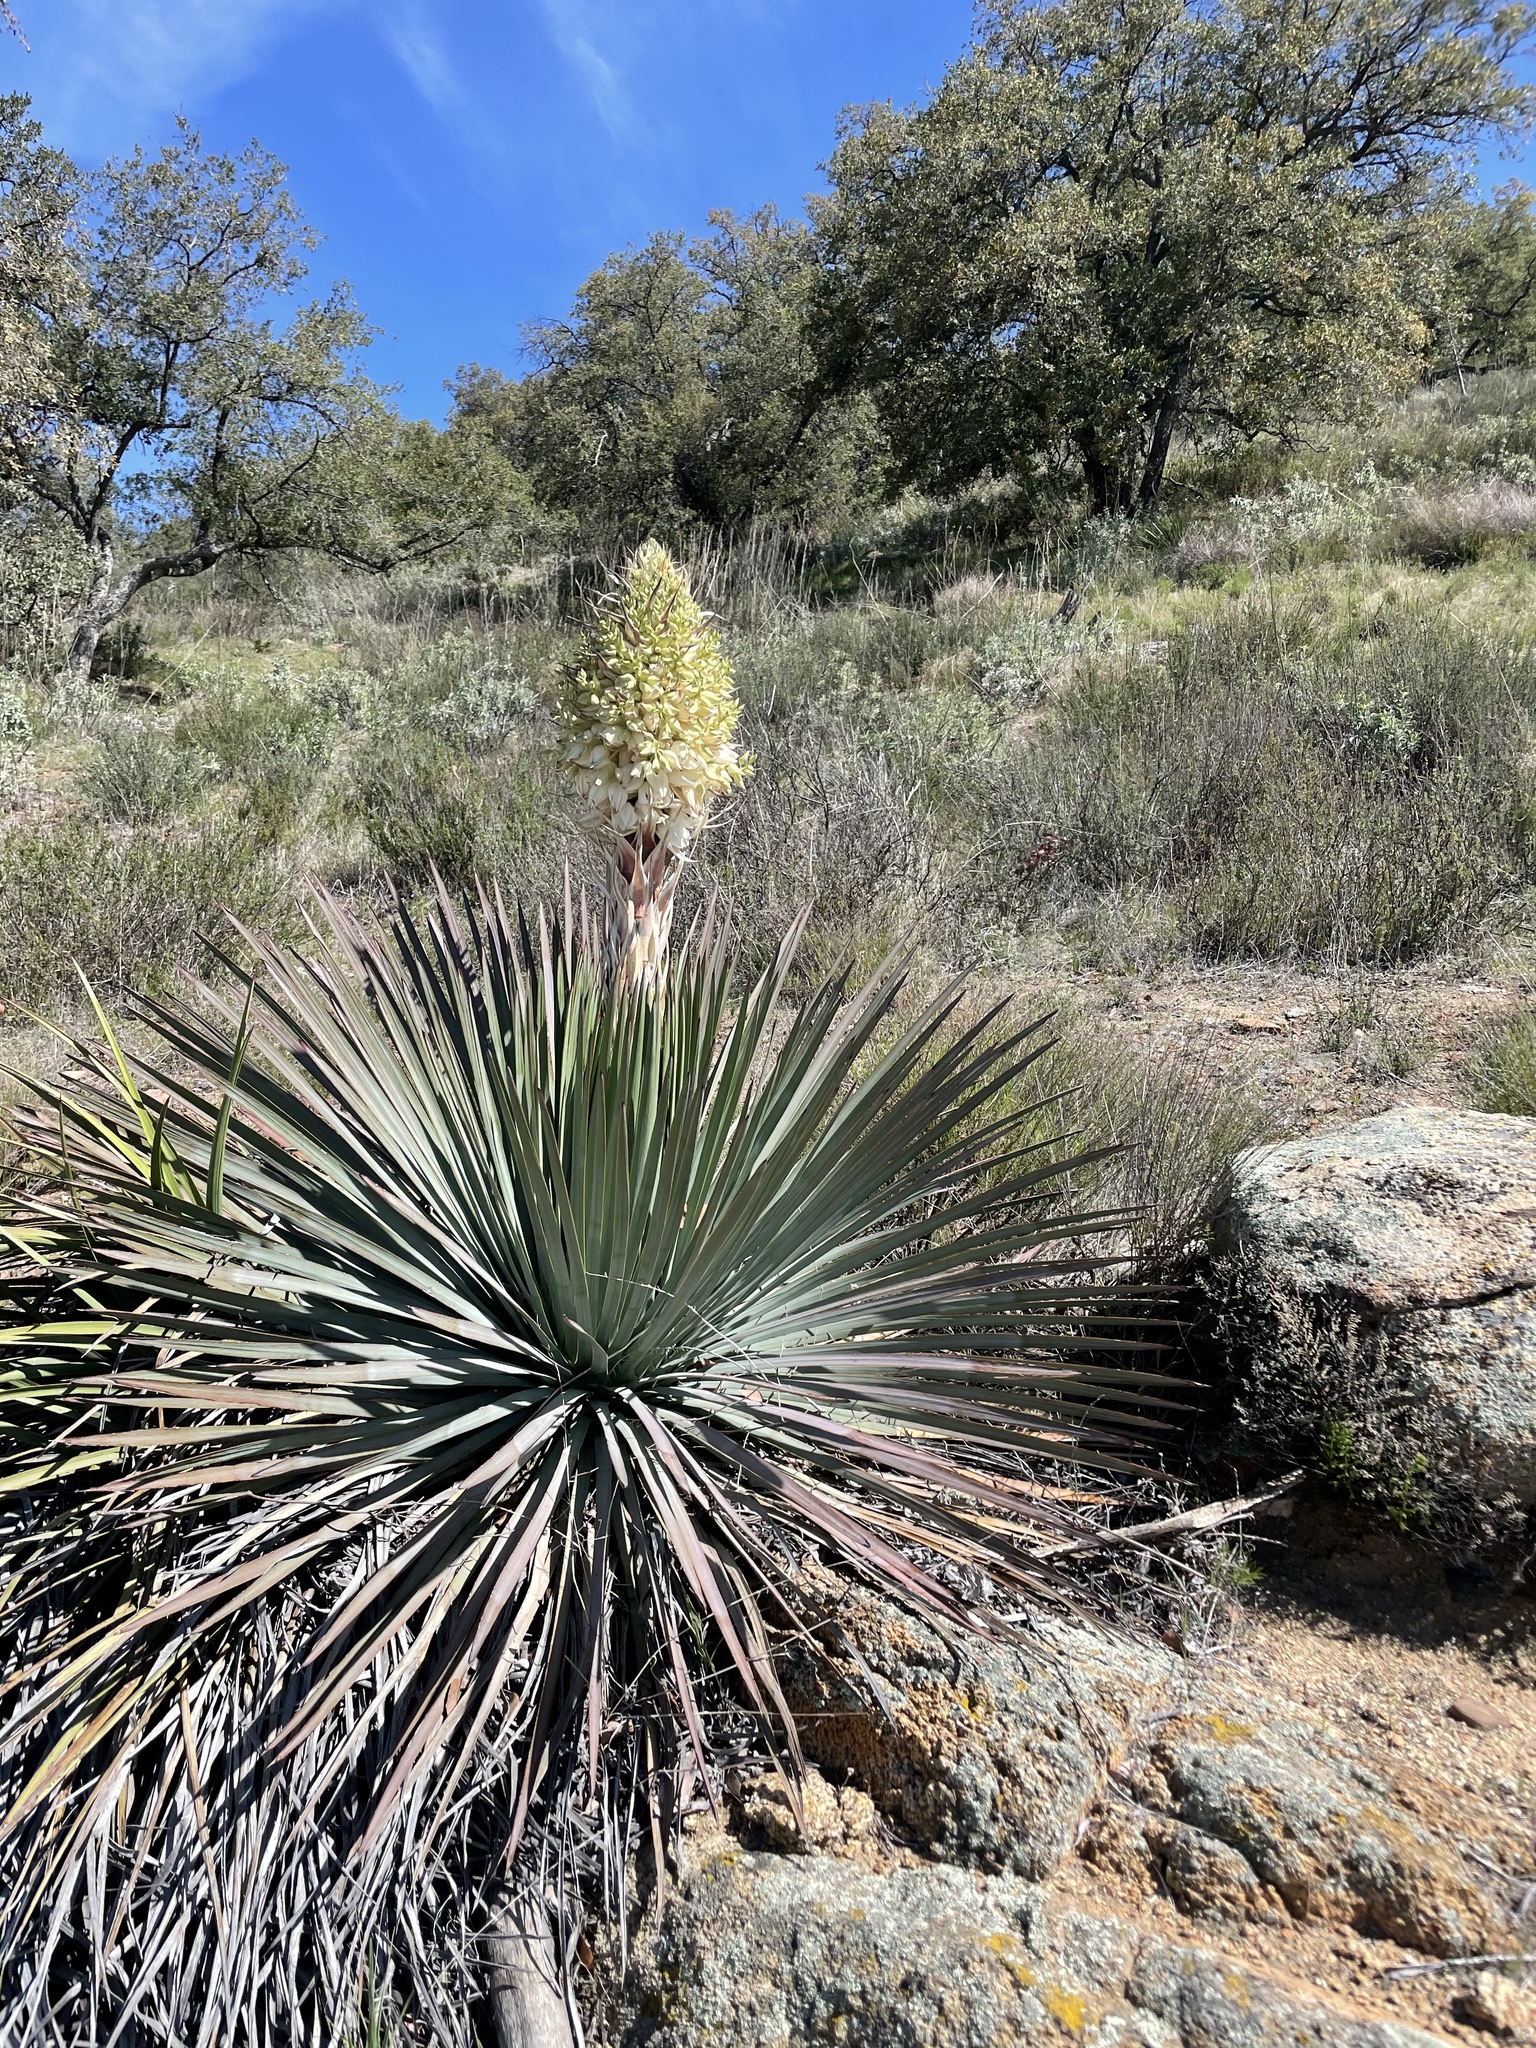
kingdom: Plantae
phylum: Tracheophyta
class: Liliopsida
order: Asparagales
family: Asparagaceae
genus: Hesperoyucca
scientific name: Hesperoyucca whipplei
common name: Our lord's-candle
